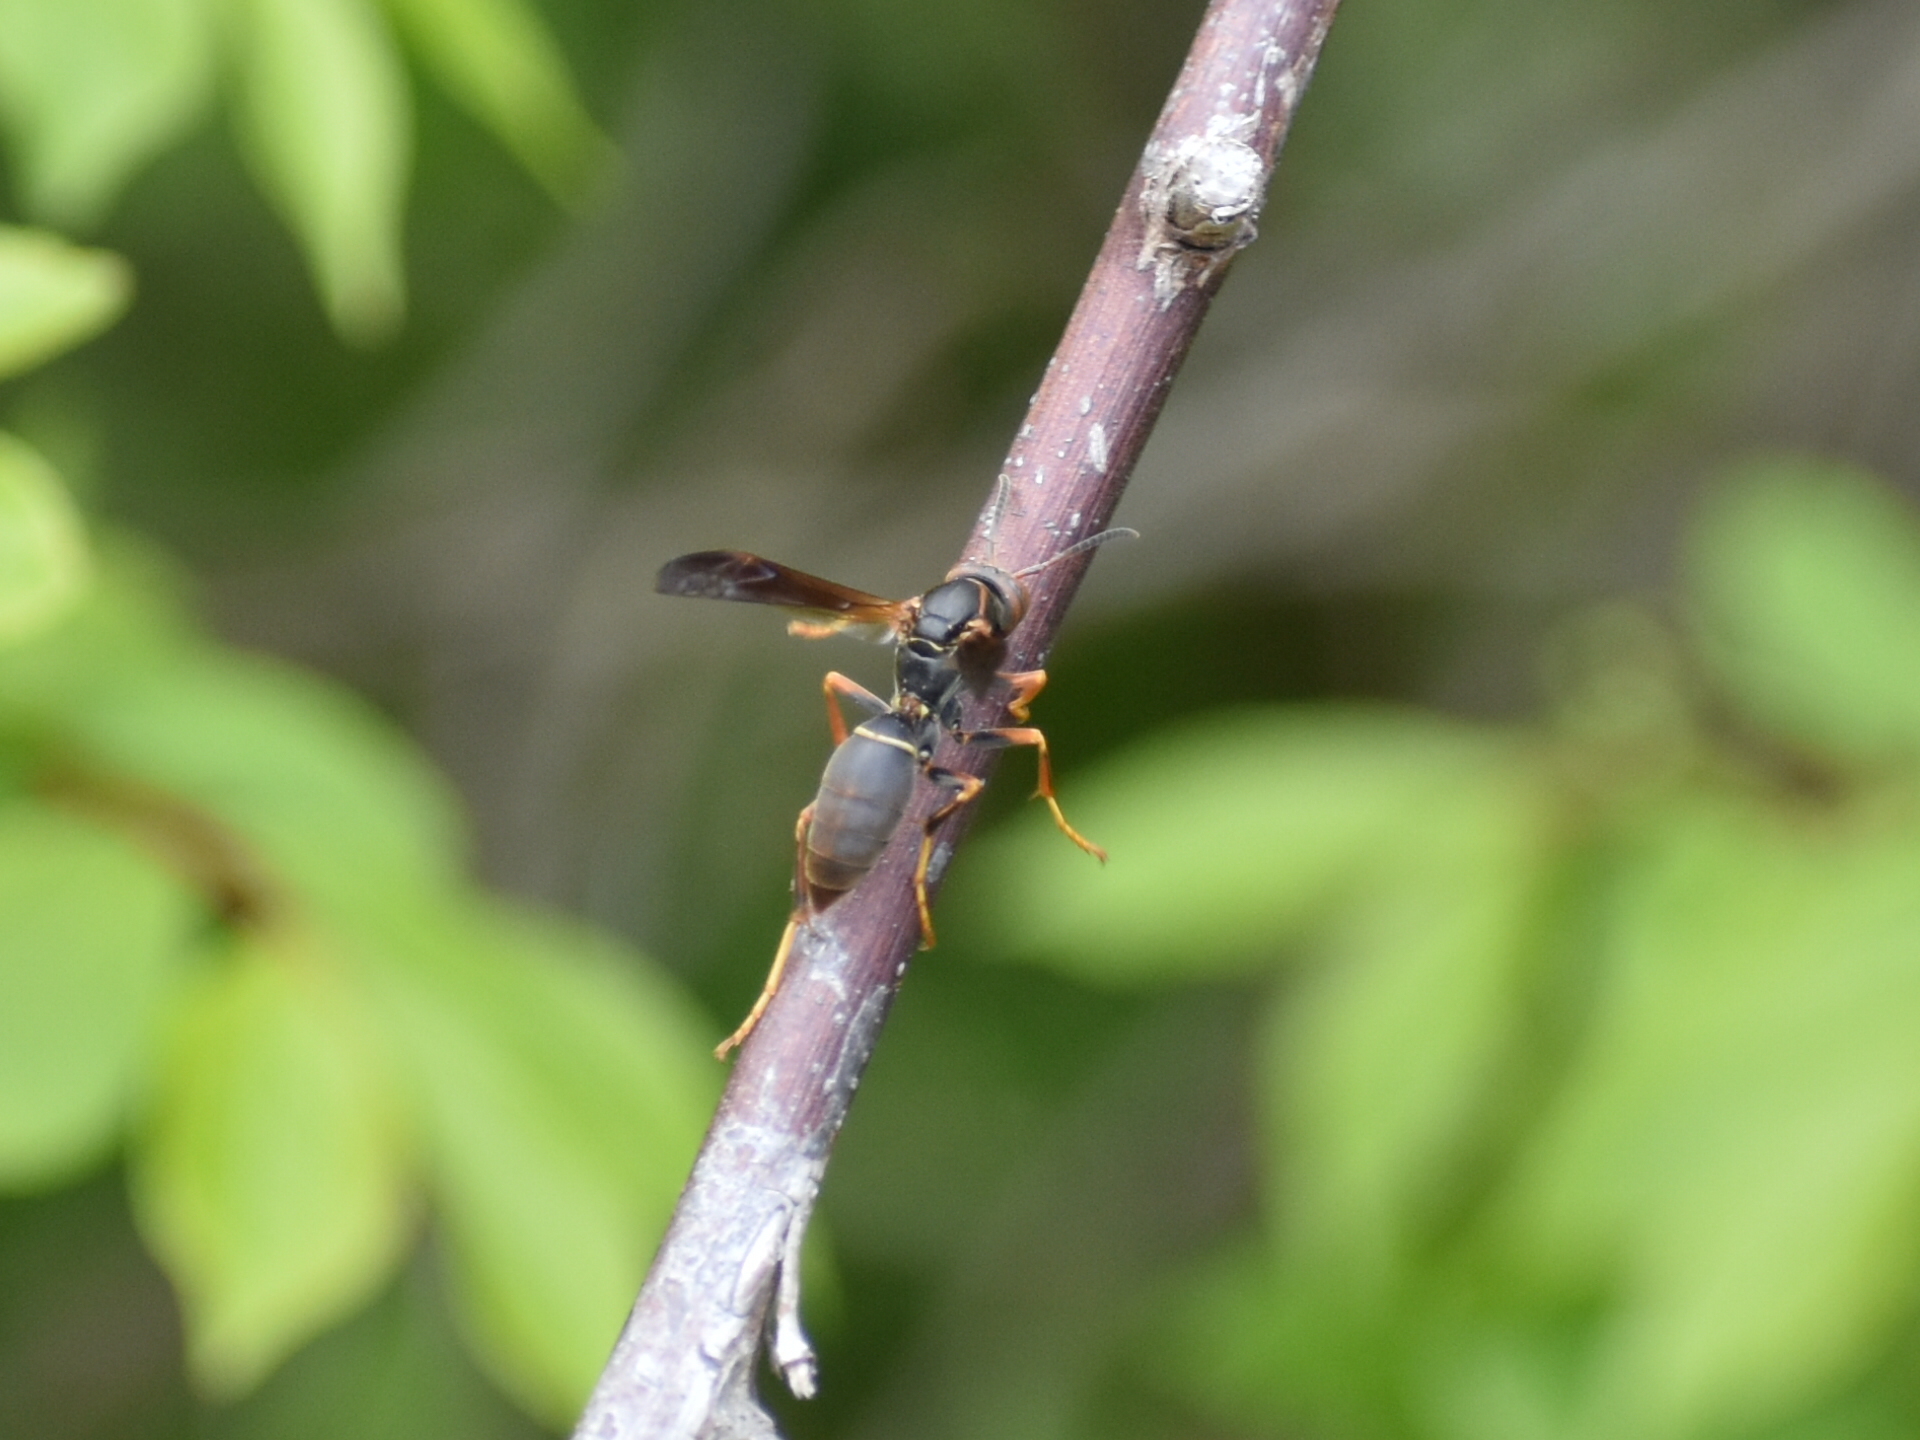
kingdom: Animalia
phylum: Arthropoda
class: Insecta
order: Hymenoptera
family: Eumenidae
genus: Polistes
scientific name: Polistes fuscatus
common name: Dark paper wasp
